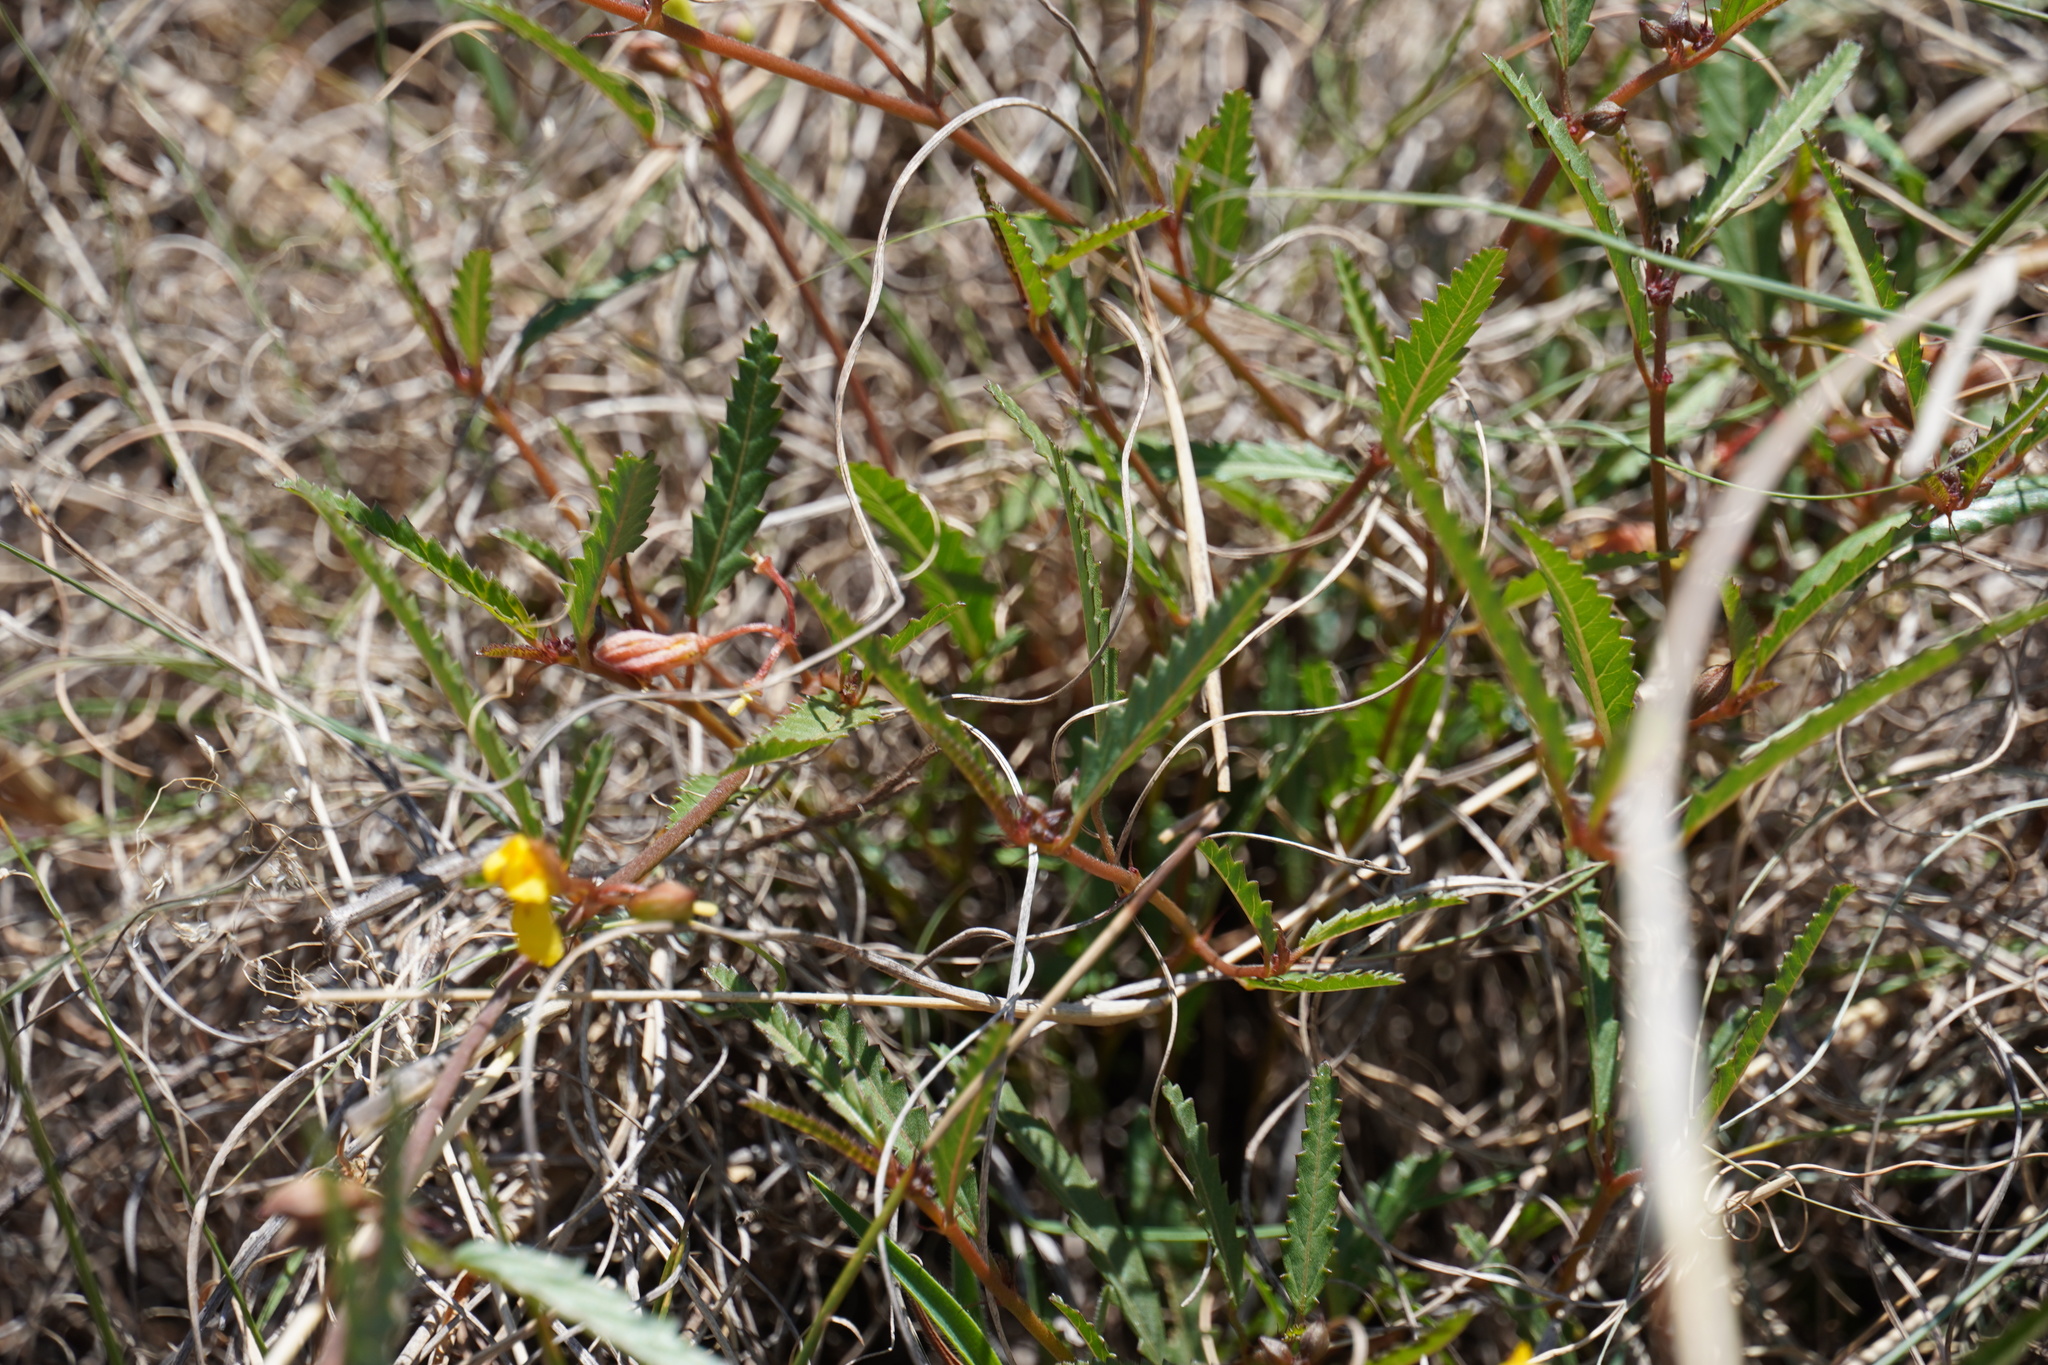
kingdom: Plantae
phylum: Tracheophyta
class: Magnoliopsida
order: Malvales
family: Malvaceae
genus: Corchorus
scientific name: Corchorus asplenifolius
